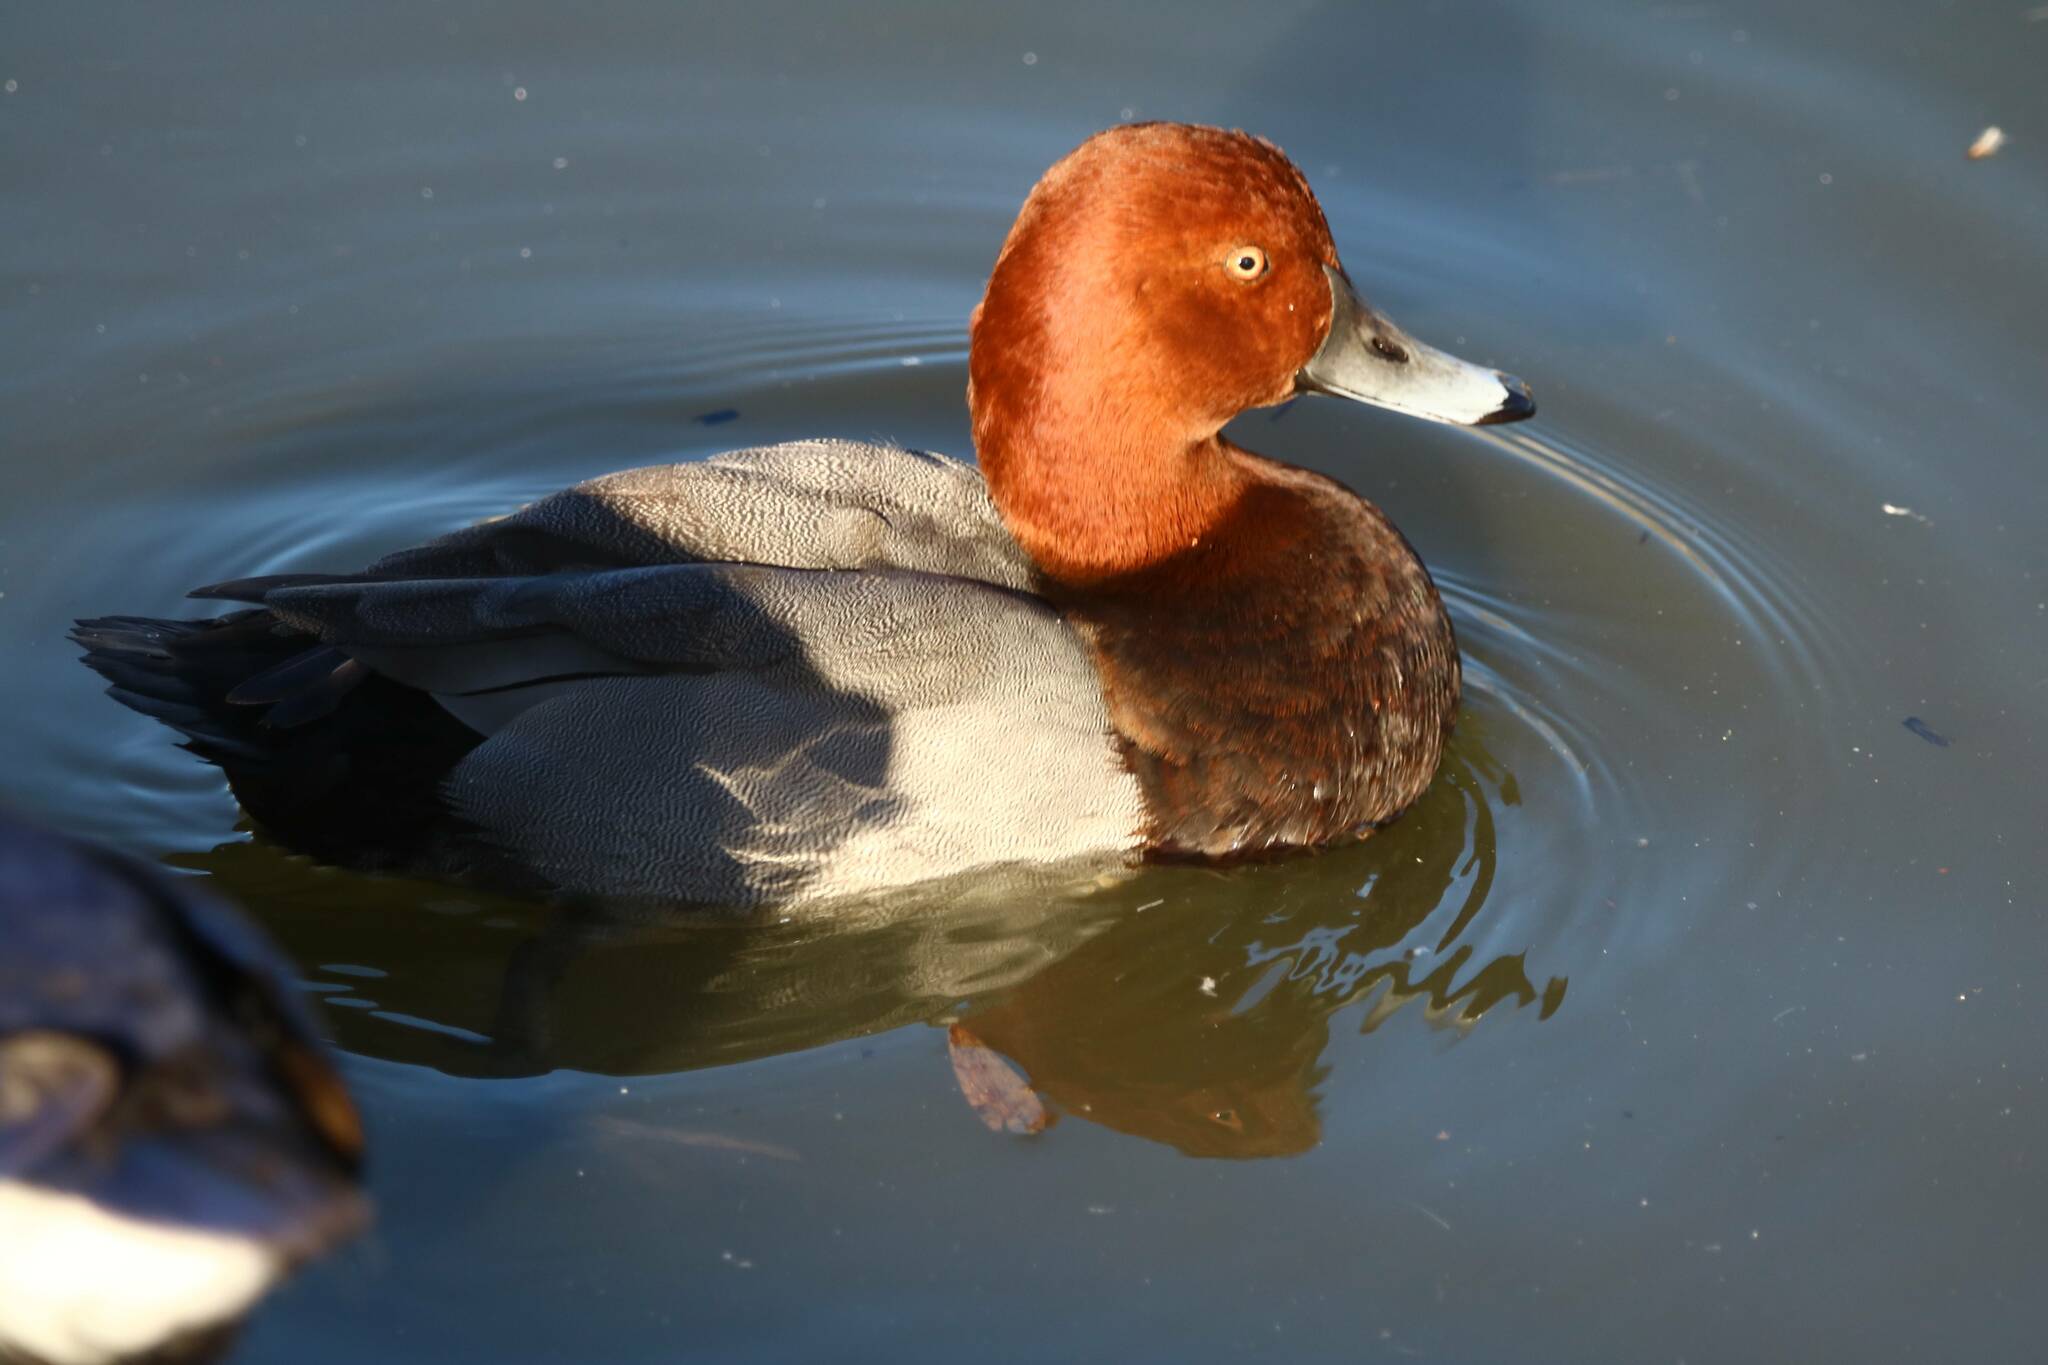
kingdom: Animalia
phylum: Chordata
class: Aves
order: Anseriformes
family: Anatidae
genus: Aythya
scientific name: Aythya ferina
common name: Common pochard
